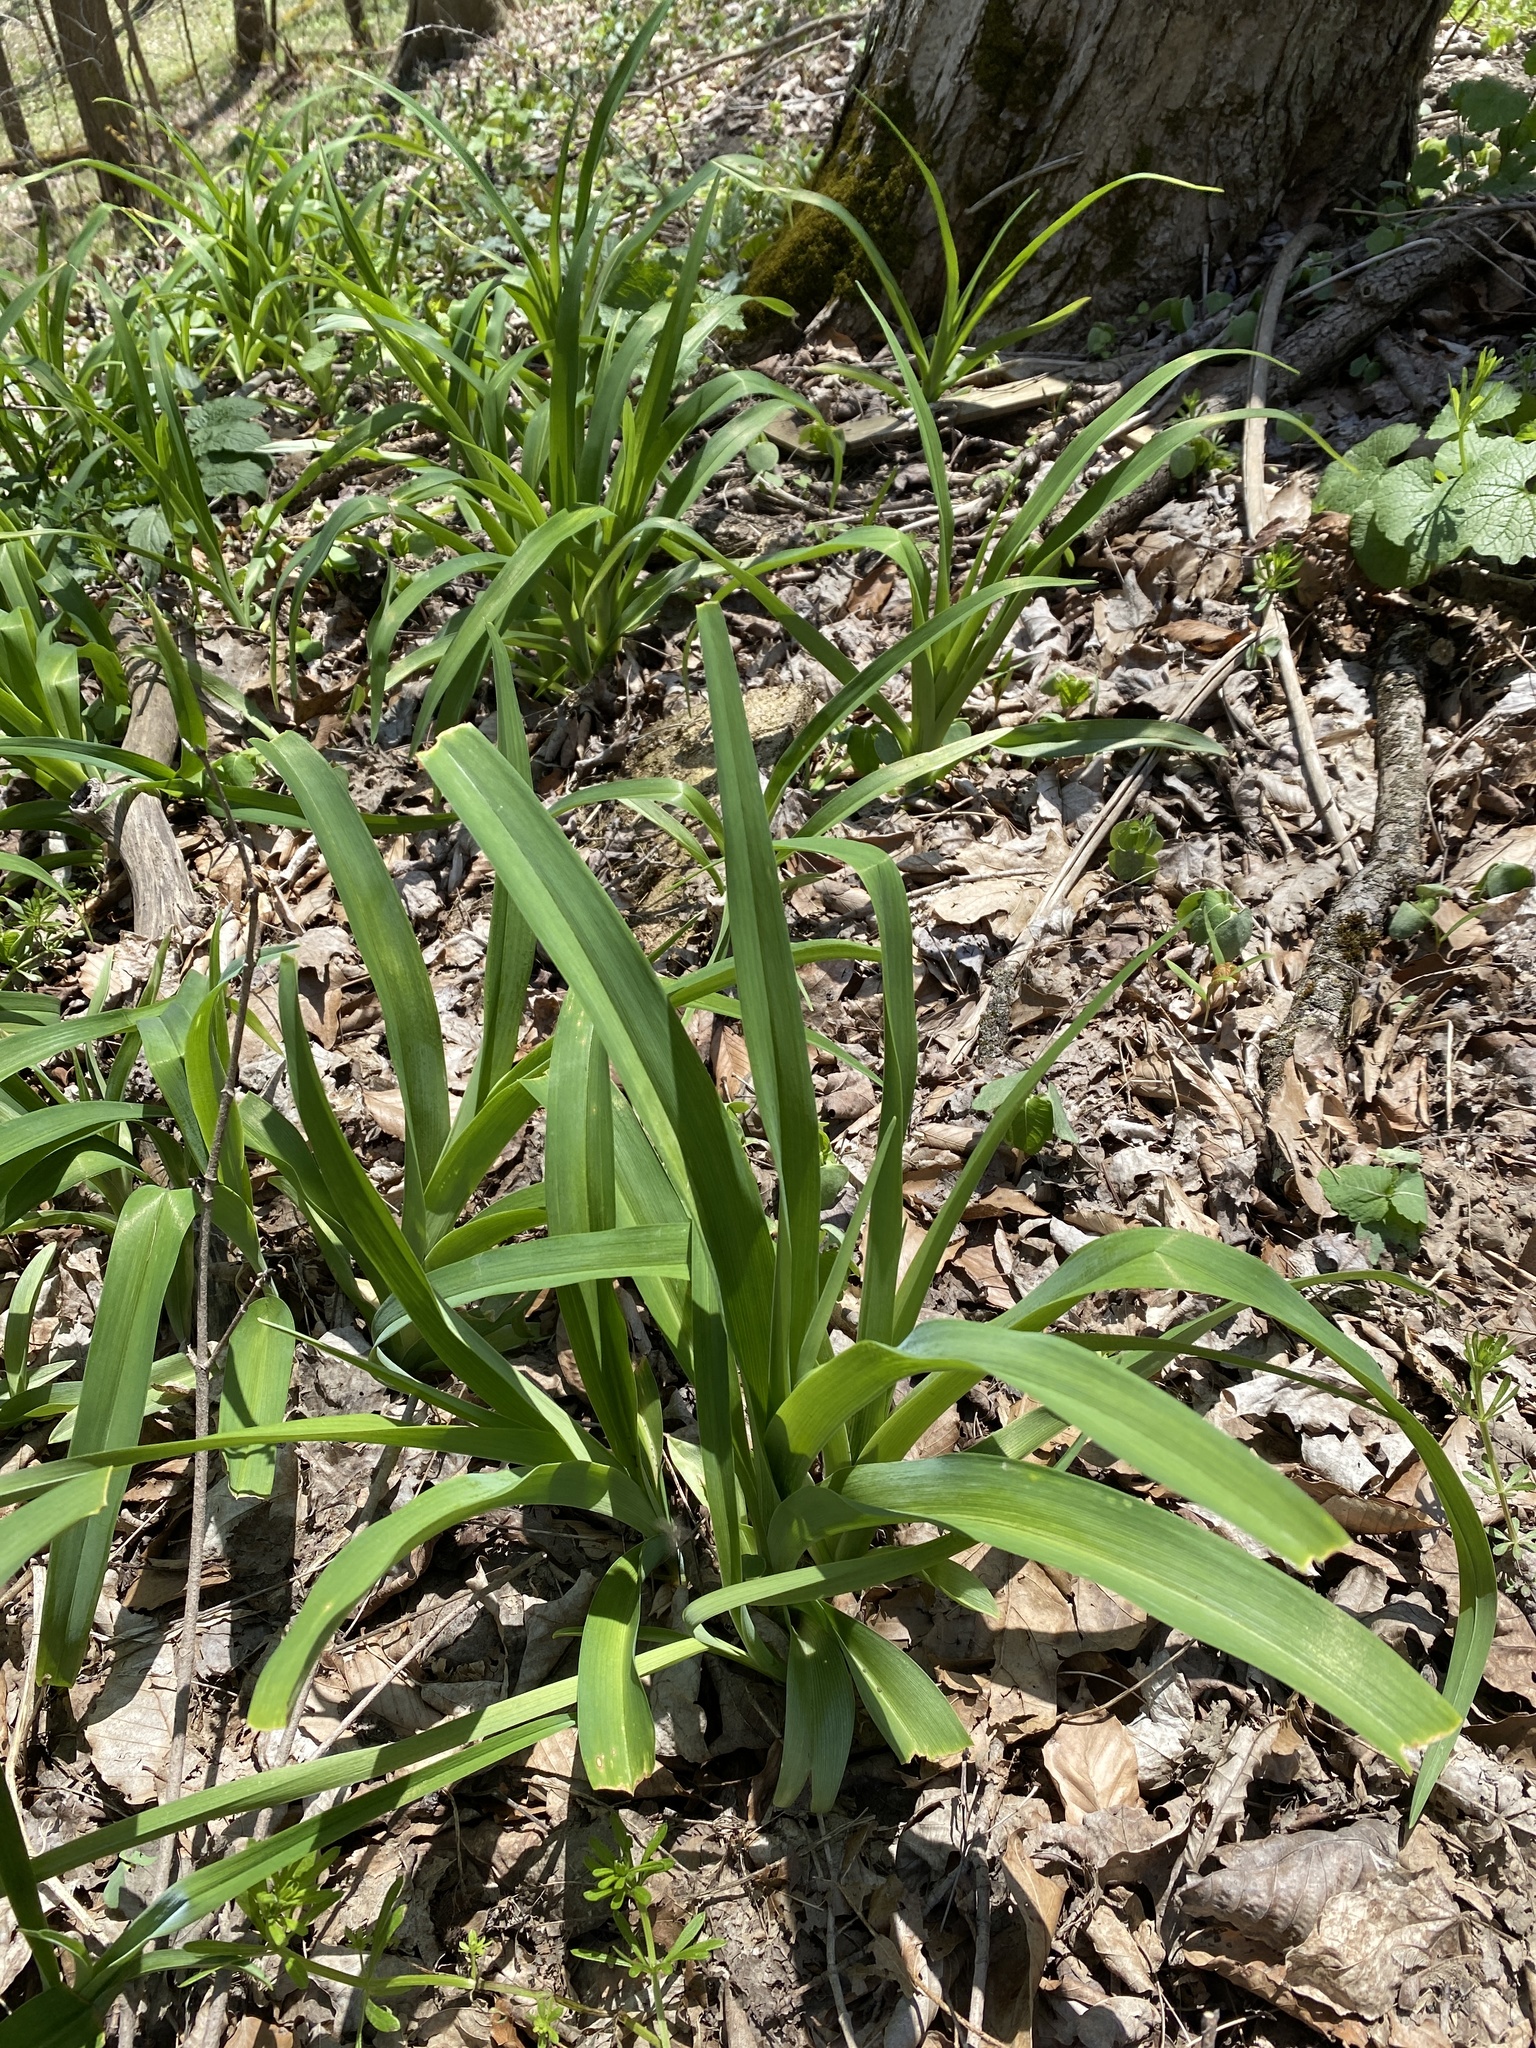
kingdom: Plantae
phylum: Tracheophyta
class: Liliopsida
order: Asparagales
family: Asphodelaceae
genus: Hemerocallis
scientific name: Hemerocallis fulva
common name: Orange day-lily
